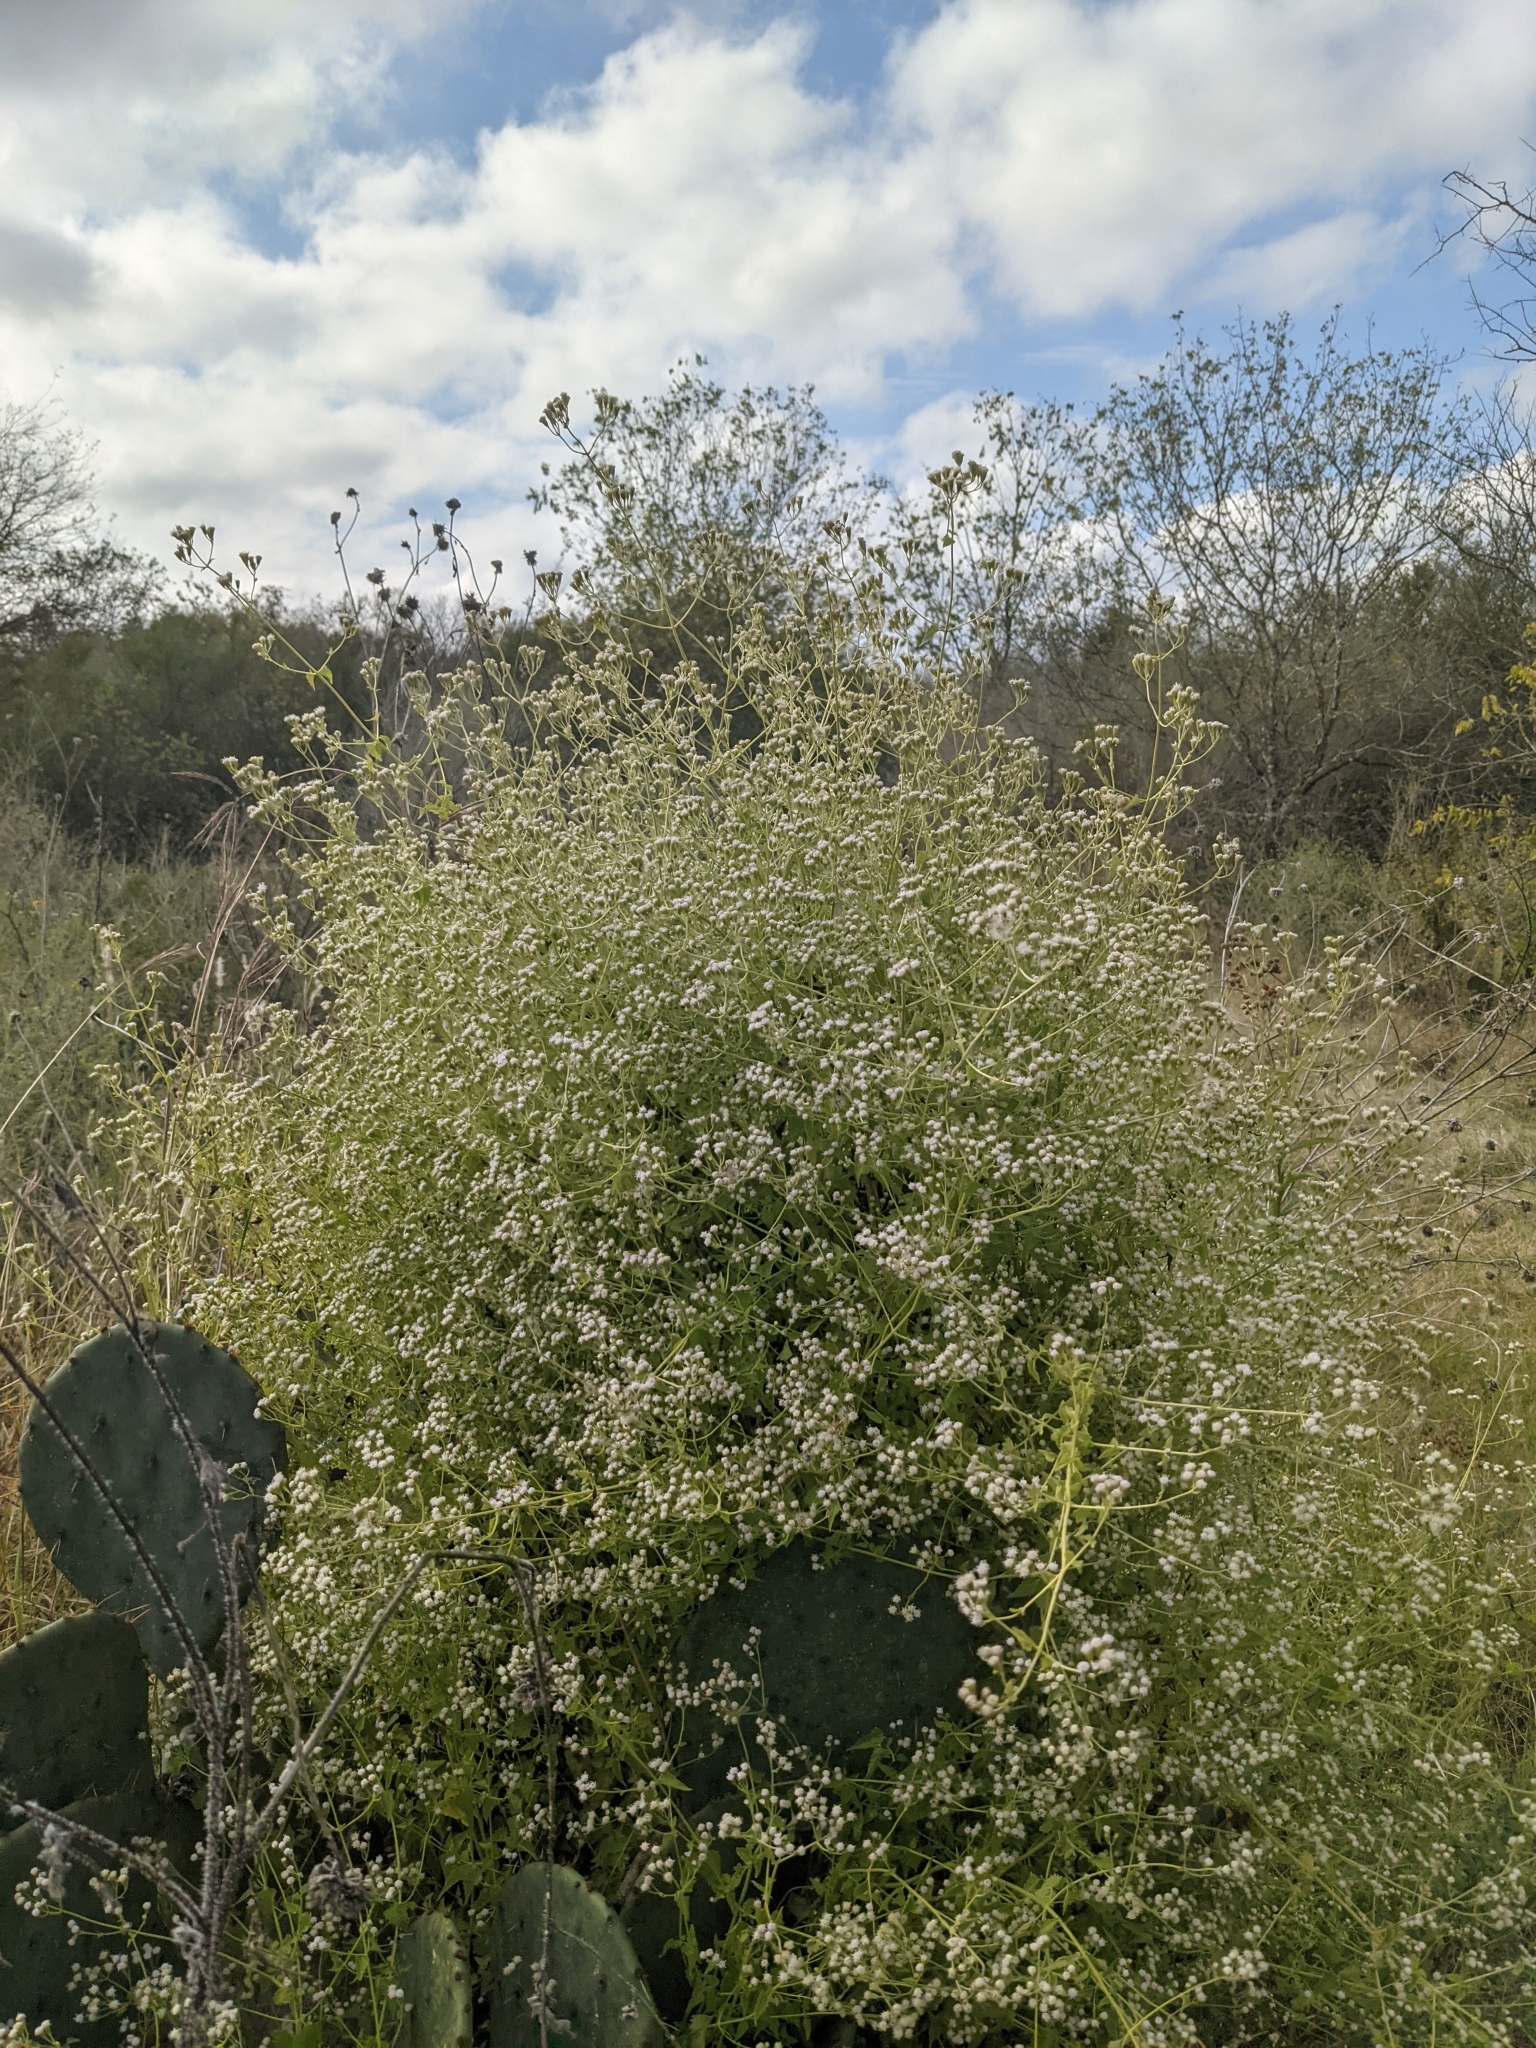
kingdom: Plantae
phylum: Tracheophyta
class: Magnoliopsida
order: Asterales
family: Asteraceae
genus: Fleischmannia
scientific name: Fleischmannia incarnata
